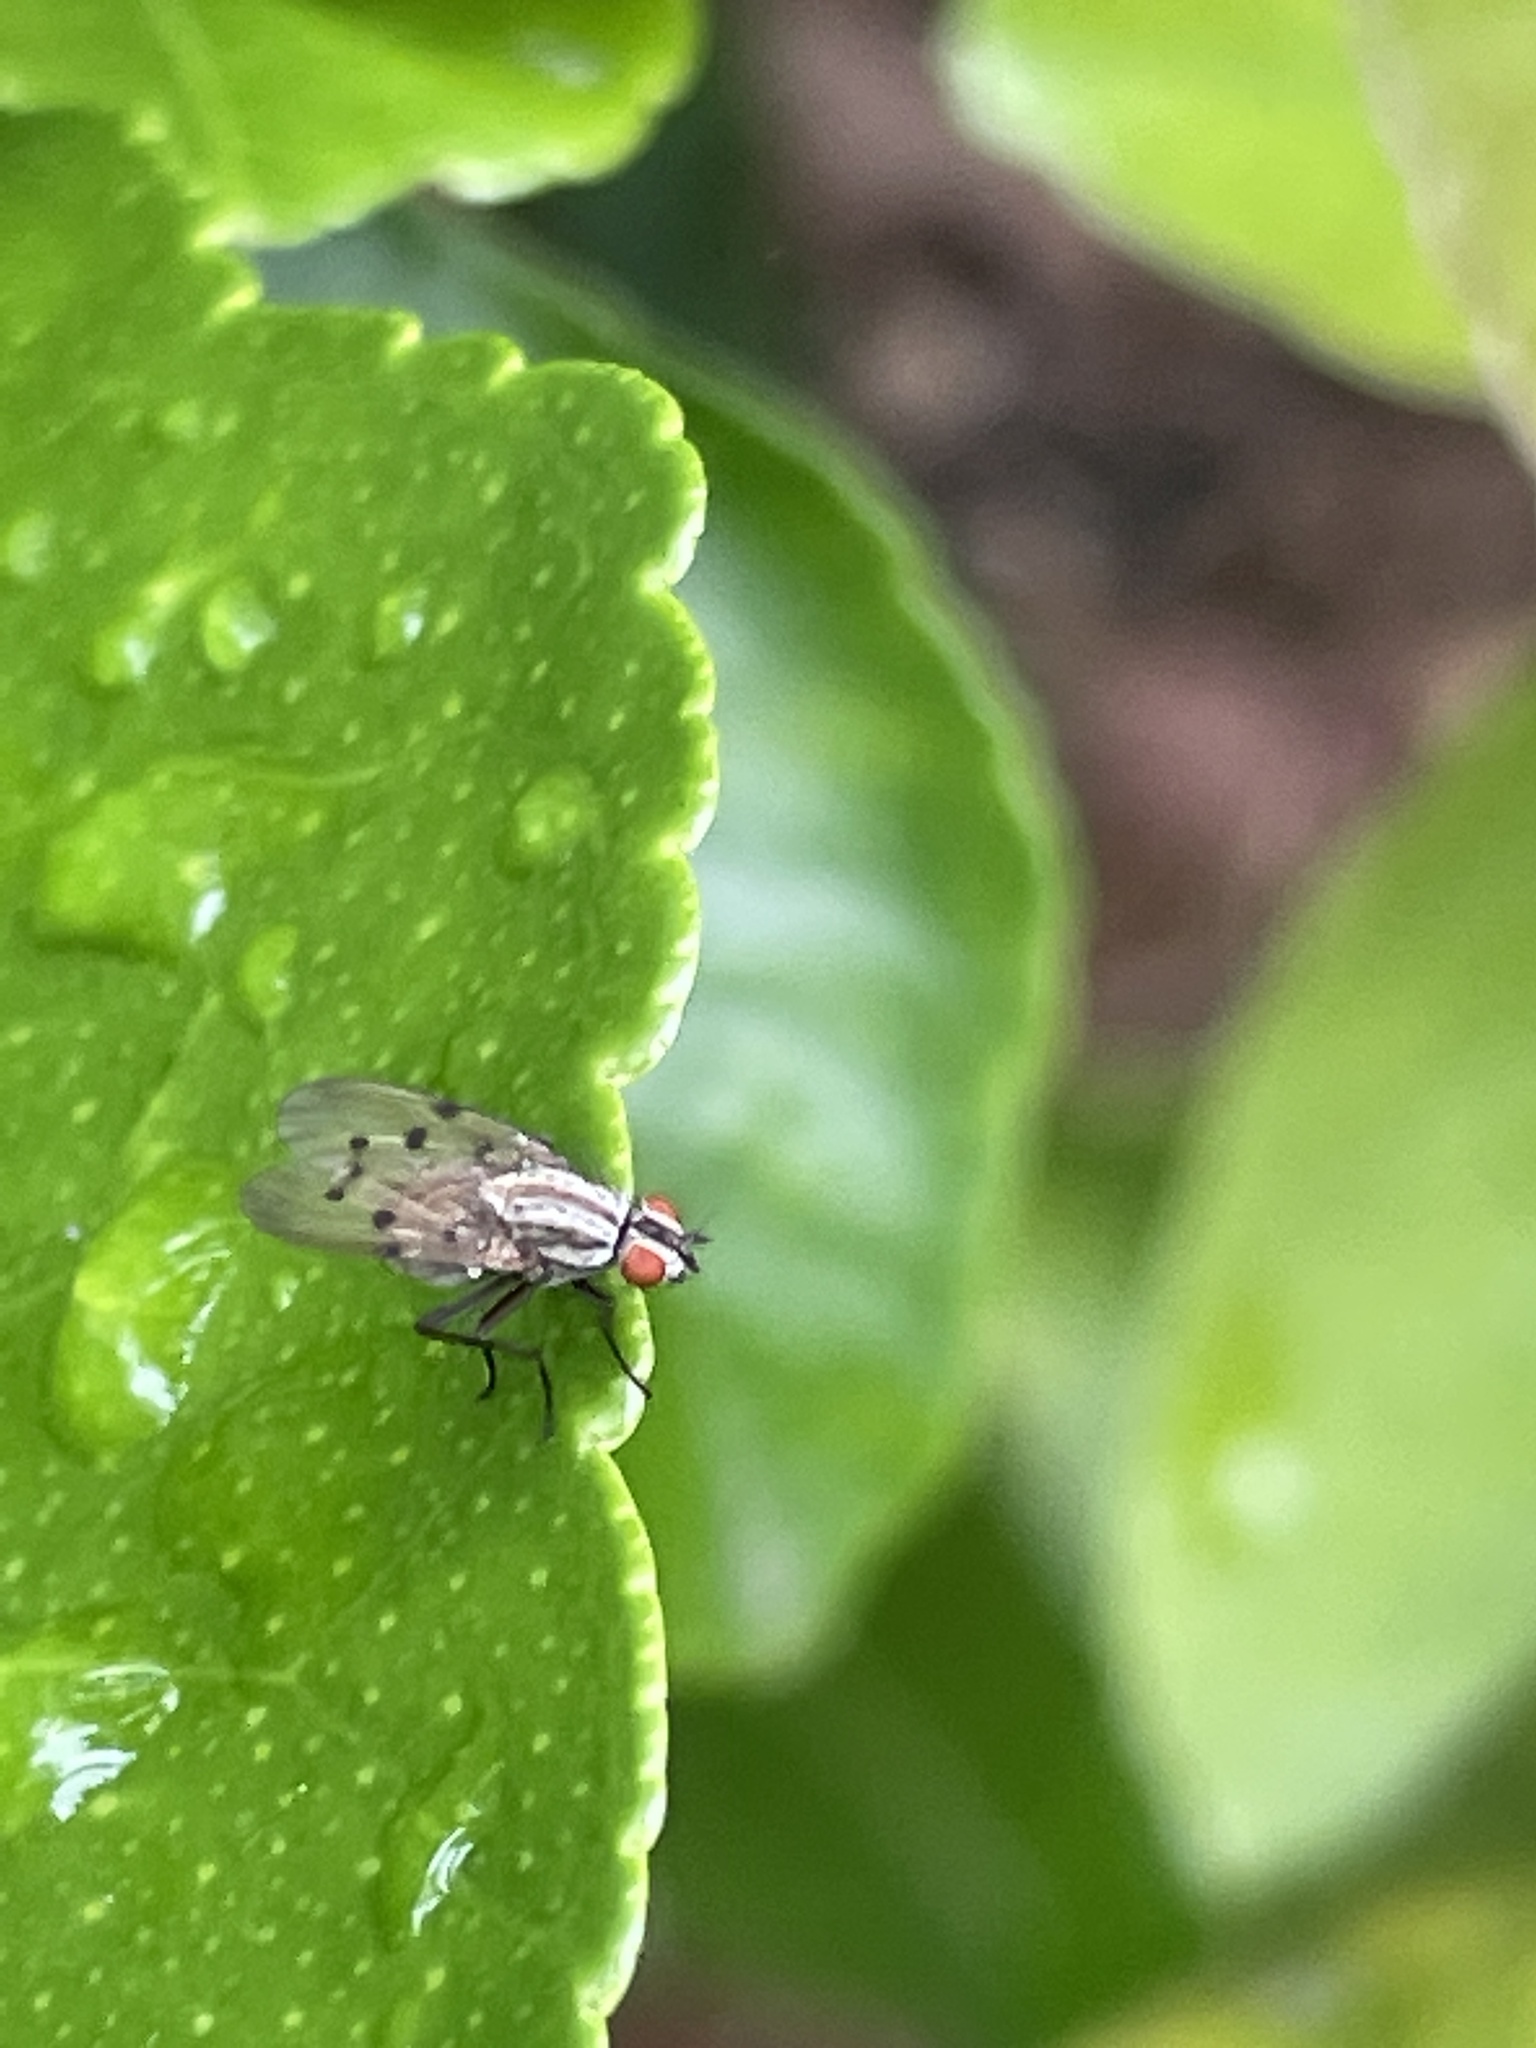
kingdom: Animalia
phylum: Arthropoda
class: Insecta
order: Diptera
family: Anthomyiidae
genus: Anthomyia
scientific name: Anthomyia punctipennis
